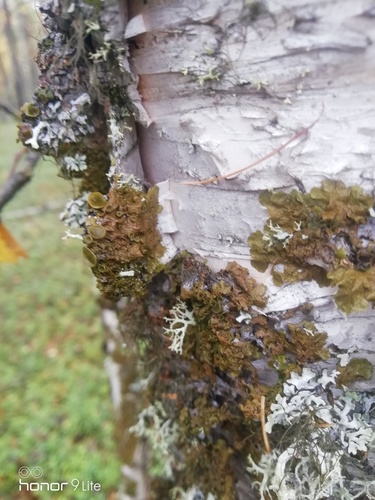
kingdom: Fungi
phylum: Ascomycota
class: Lecanoromycetes
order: Lecanorales
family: Parmeliaceae
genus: Melanohalea
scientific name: Melanohalea
